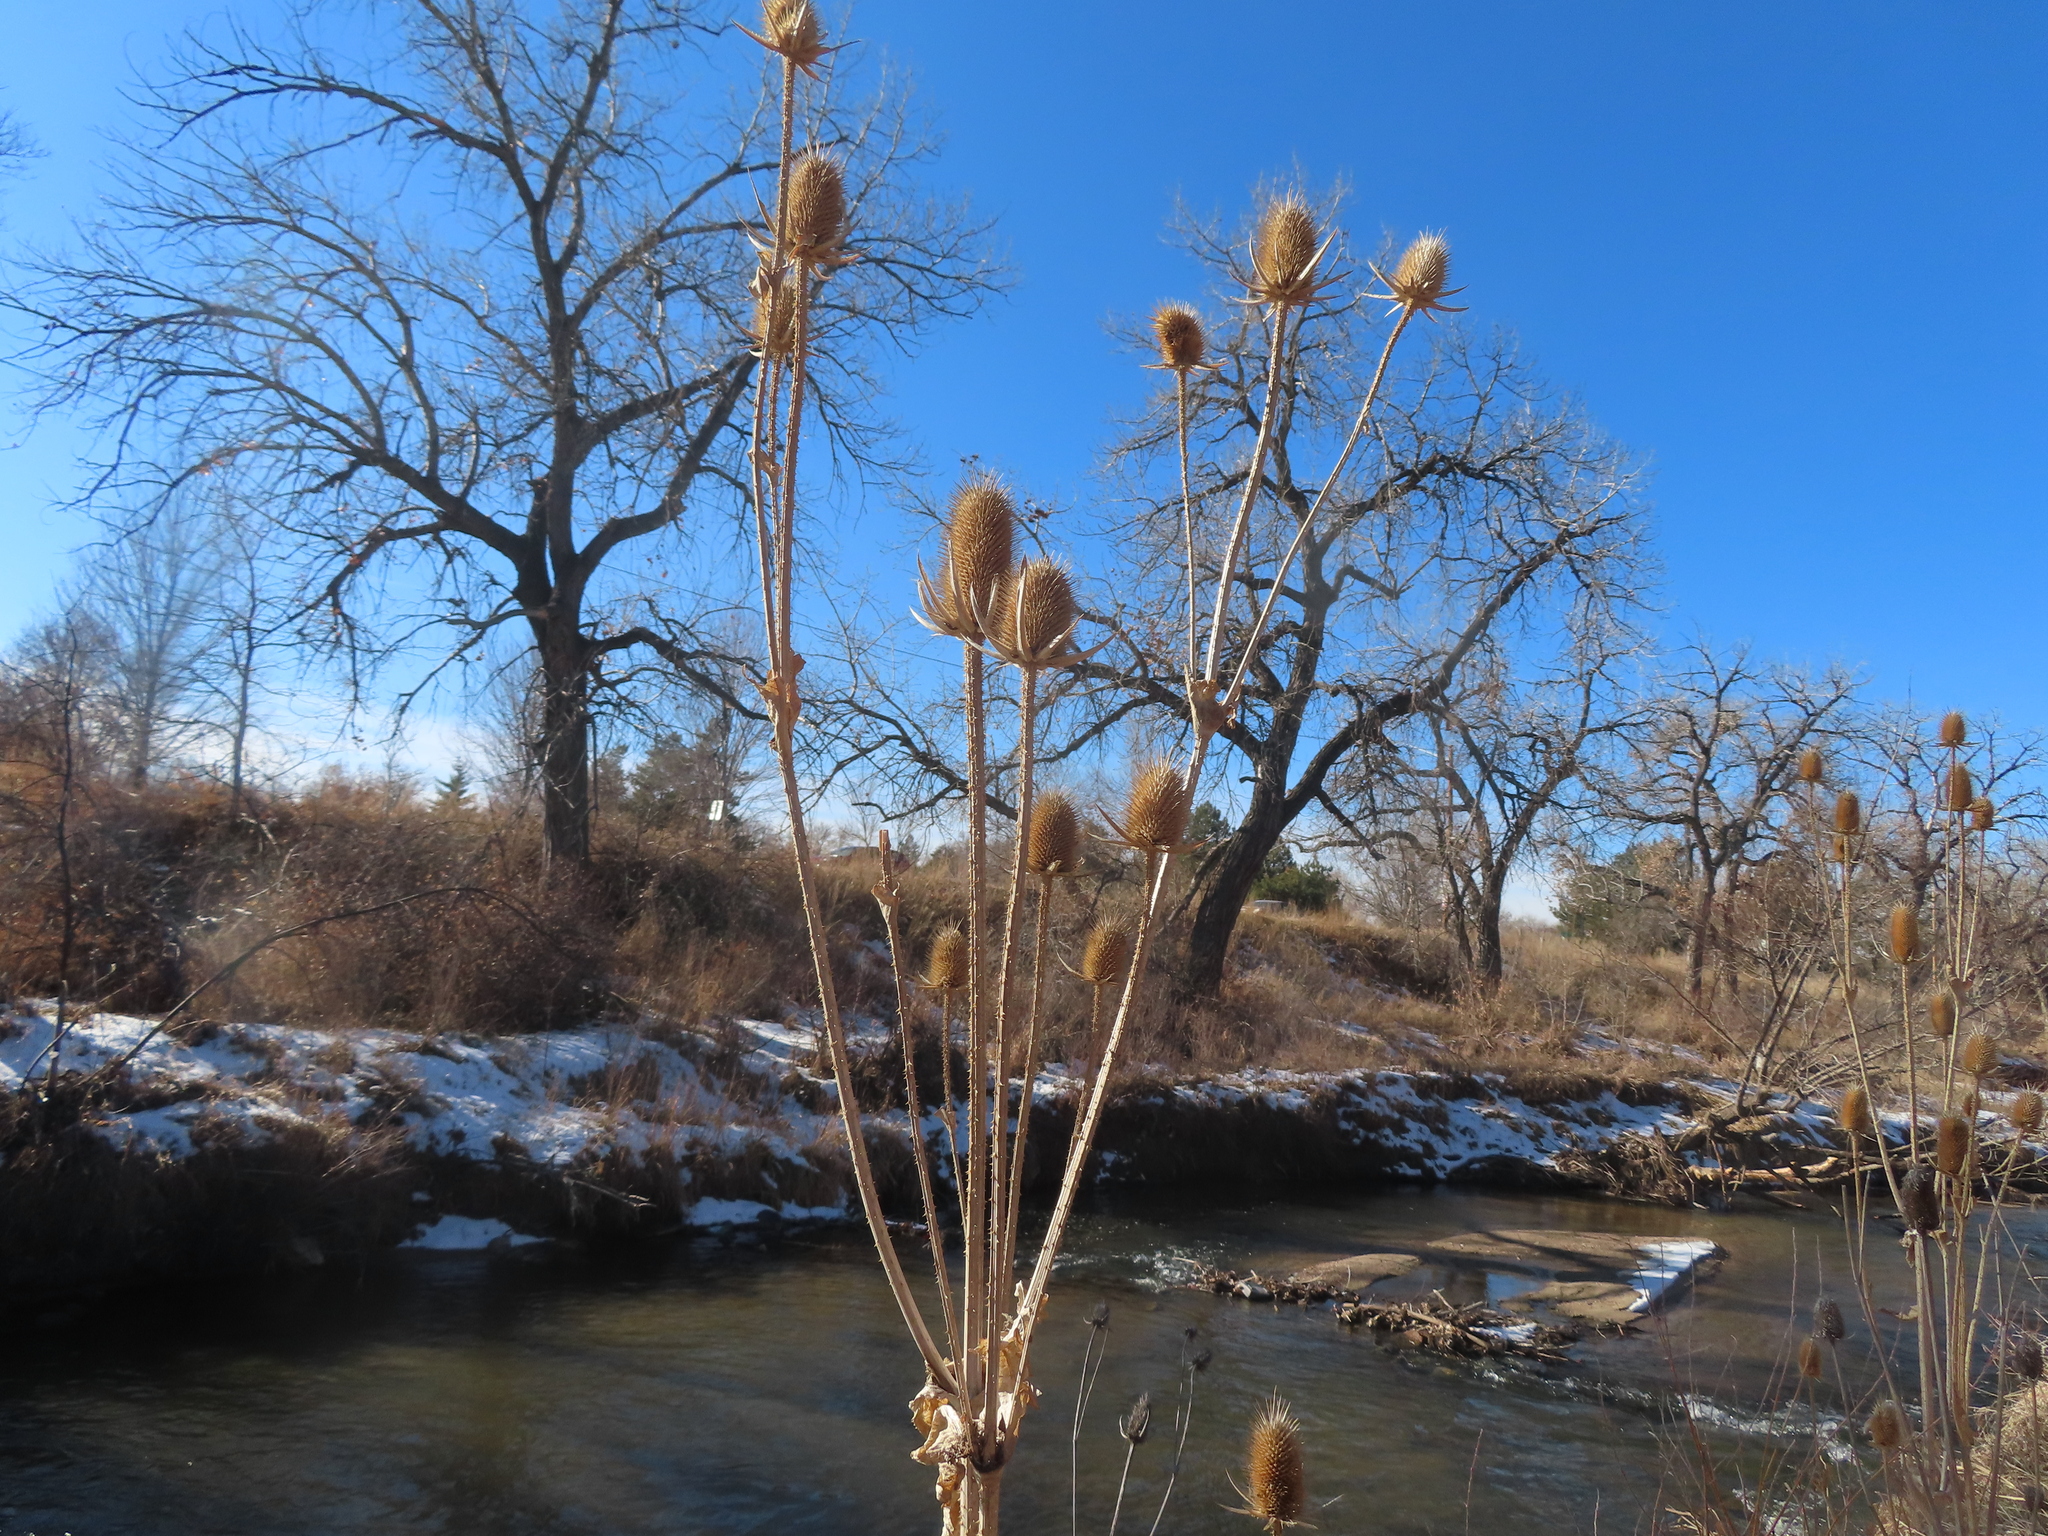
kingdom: Plantae
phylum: Tracheophyta
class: Magnoliopsida
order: Dipsacales
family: Caprifoliaceae
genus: Dipsacus
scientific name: Dipsacus laciniatus
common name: Cut-leaved teasel
